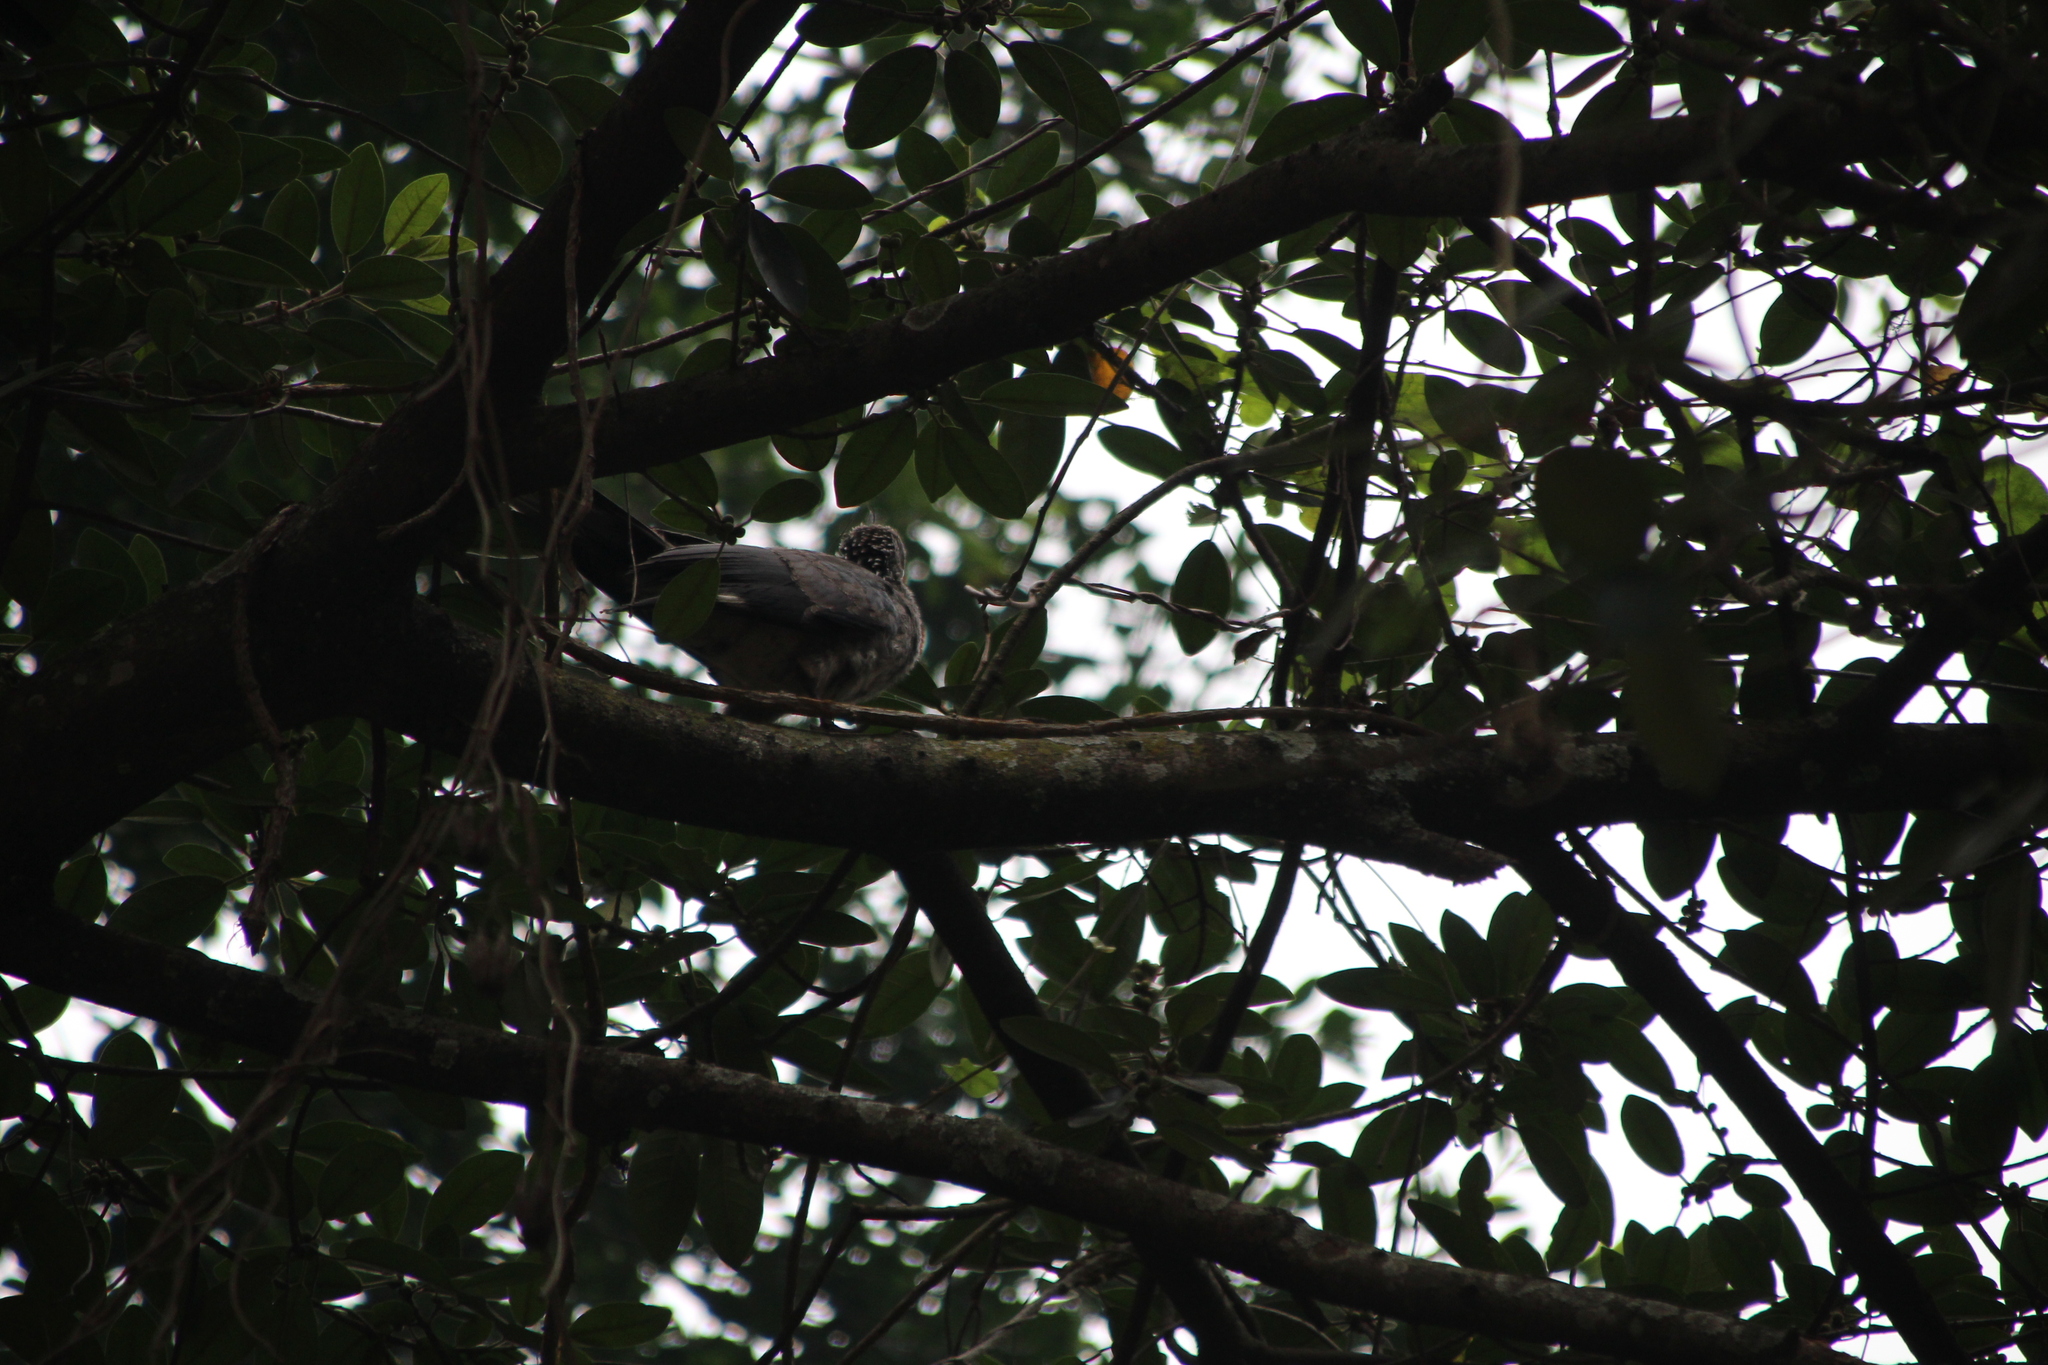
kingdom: Animalia
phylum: Chordata
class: Aves
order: Musophagiformes
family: Musophagidae
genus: Crinifer
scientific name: Crinifer zonurus
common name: Eastern plantain-eater
